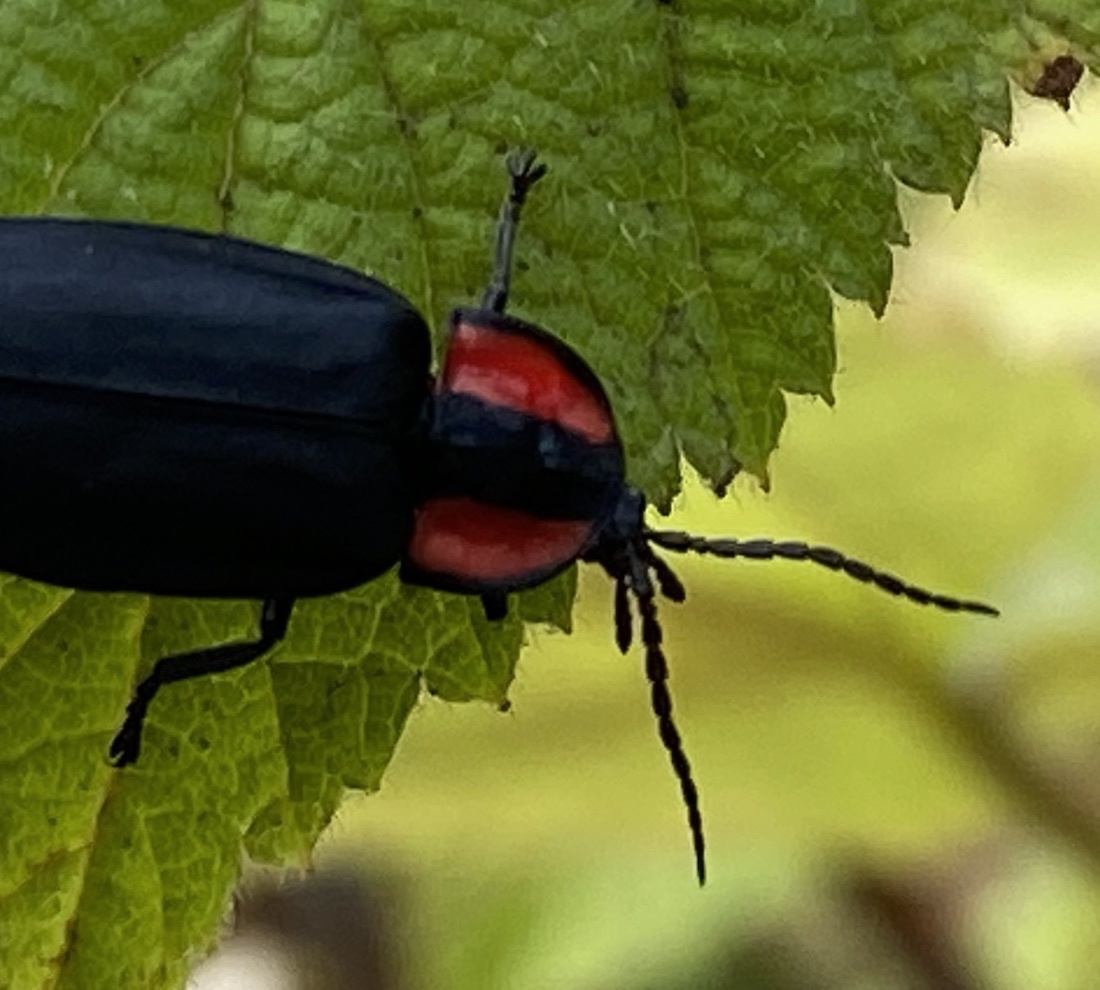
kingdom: Animalia
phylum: Arthropoda
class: Insecta
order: Coleoptera
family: Lampyridae
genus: Ellychnia
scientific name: Ellychnia megista
